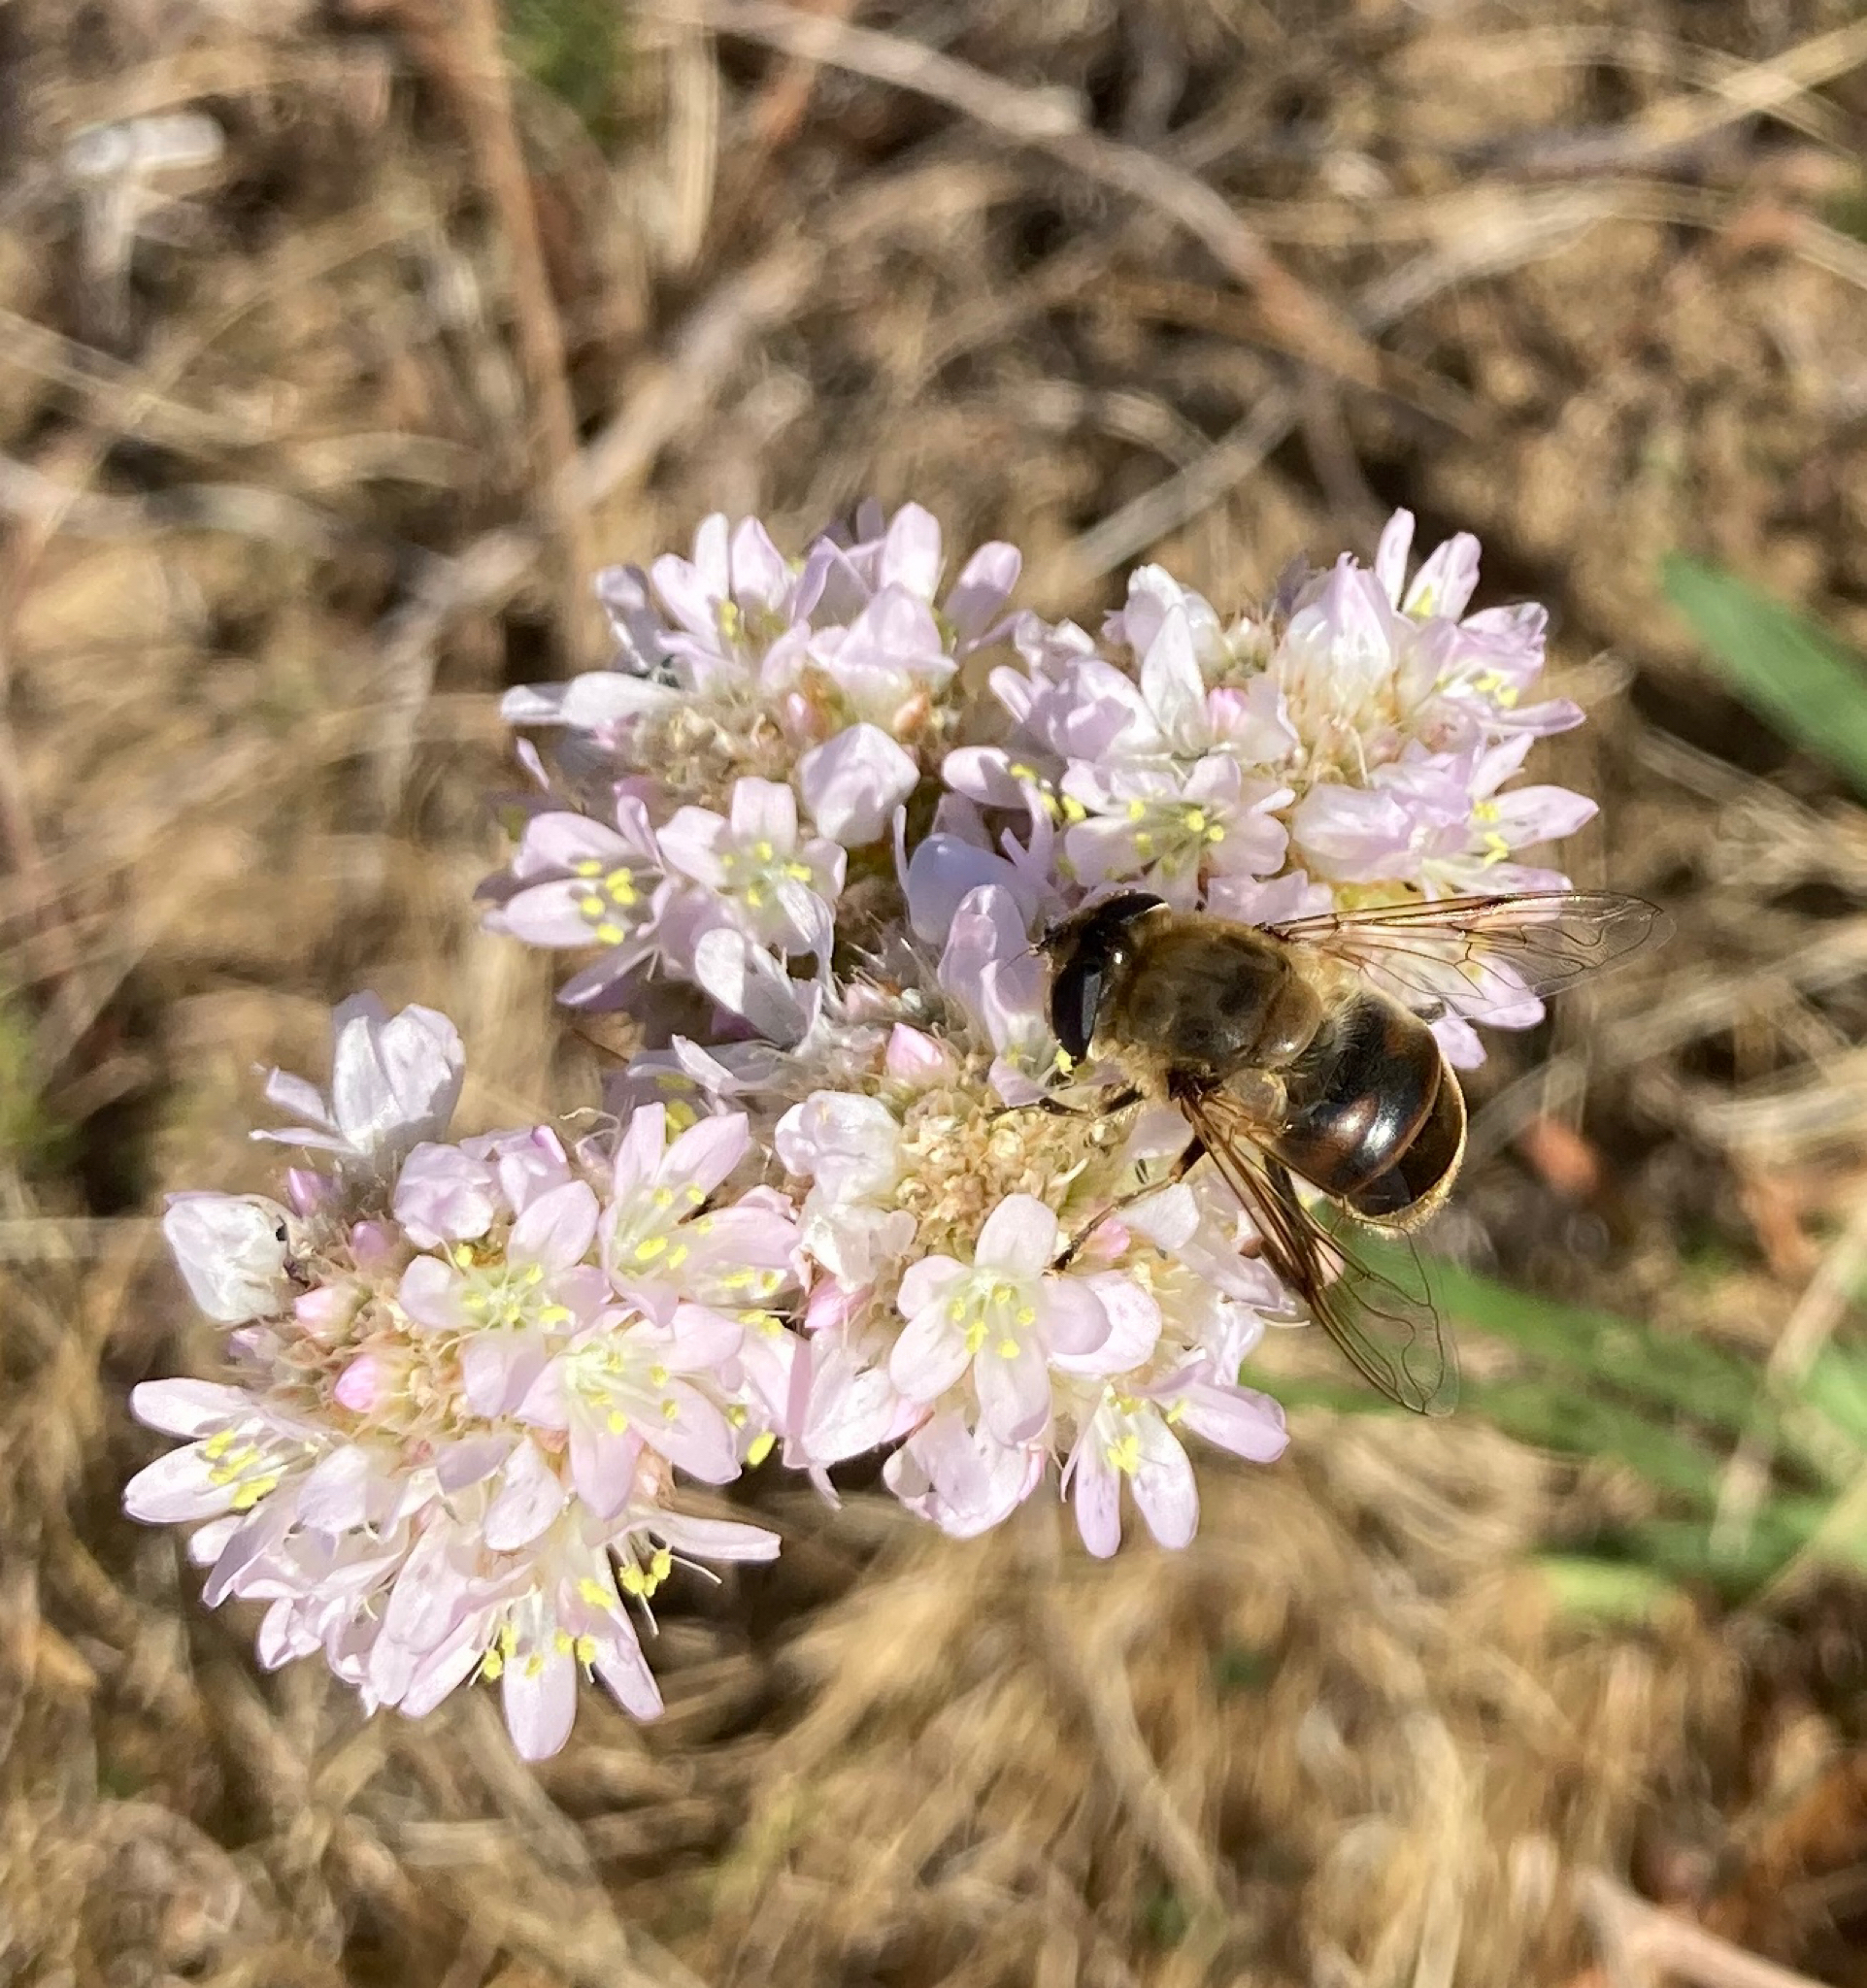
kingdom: Animalia
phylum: Arthropoda
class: Insecta
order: Diptera
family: Syrphidae
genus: Eristalis
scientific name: Eristalis tenax
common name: Drone fly
